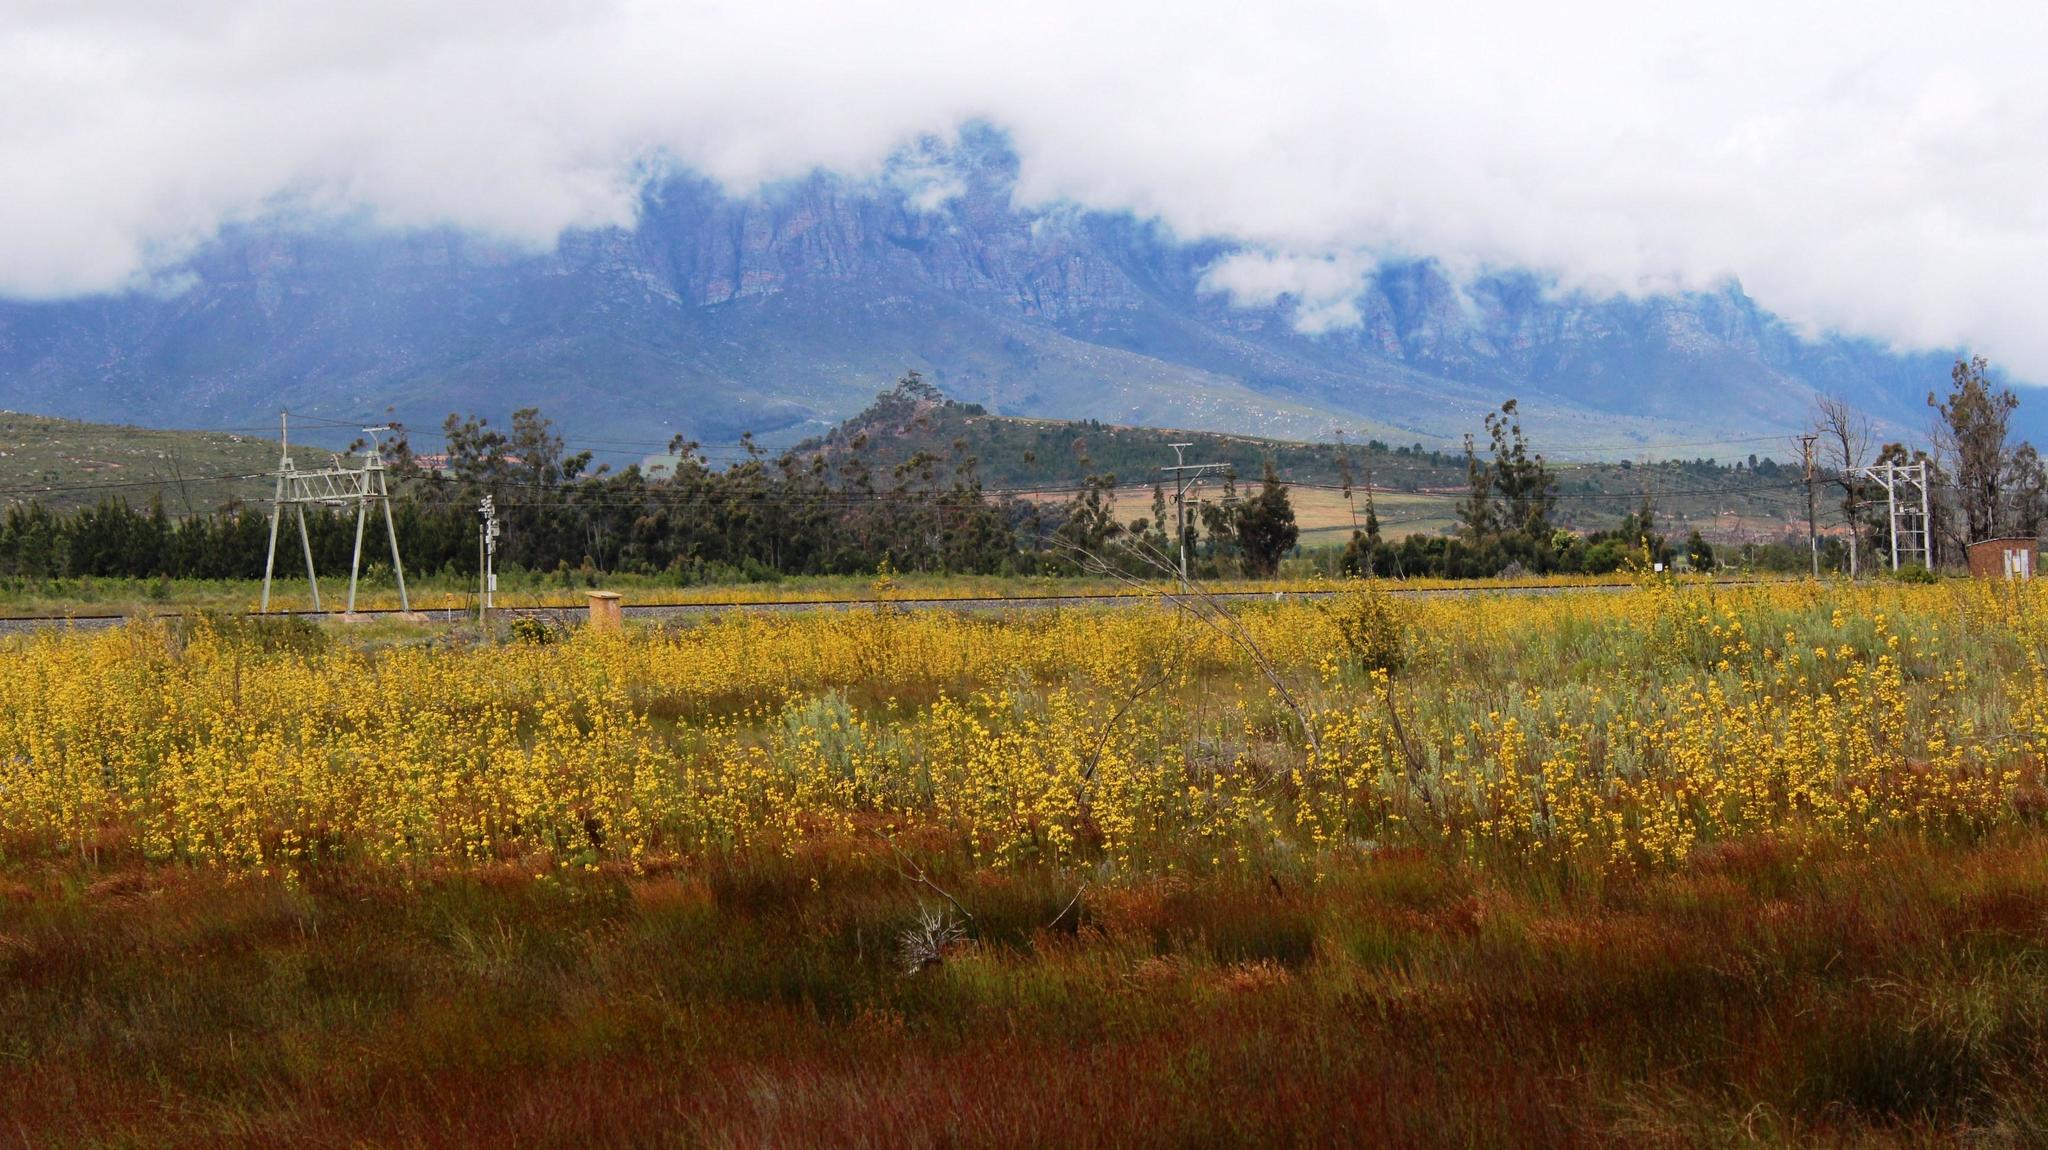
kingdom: Plantae
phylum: Tracheophyta
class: Magnoliopsida
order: Proteales
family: Proteaceae
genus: Leucadendron
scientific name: Leucadendron corymbosum
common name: Swartveld conebush
